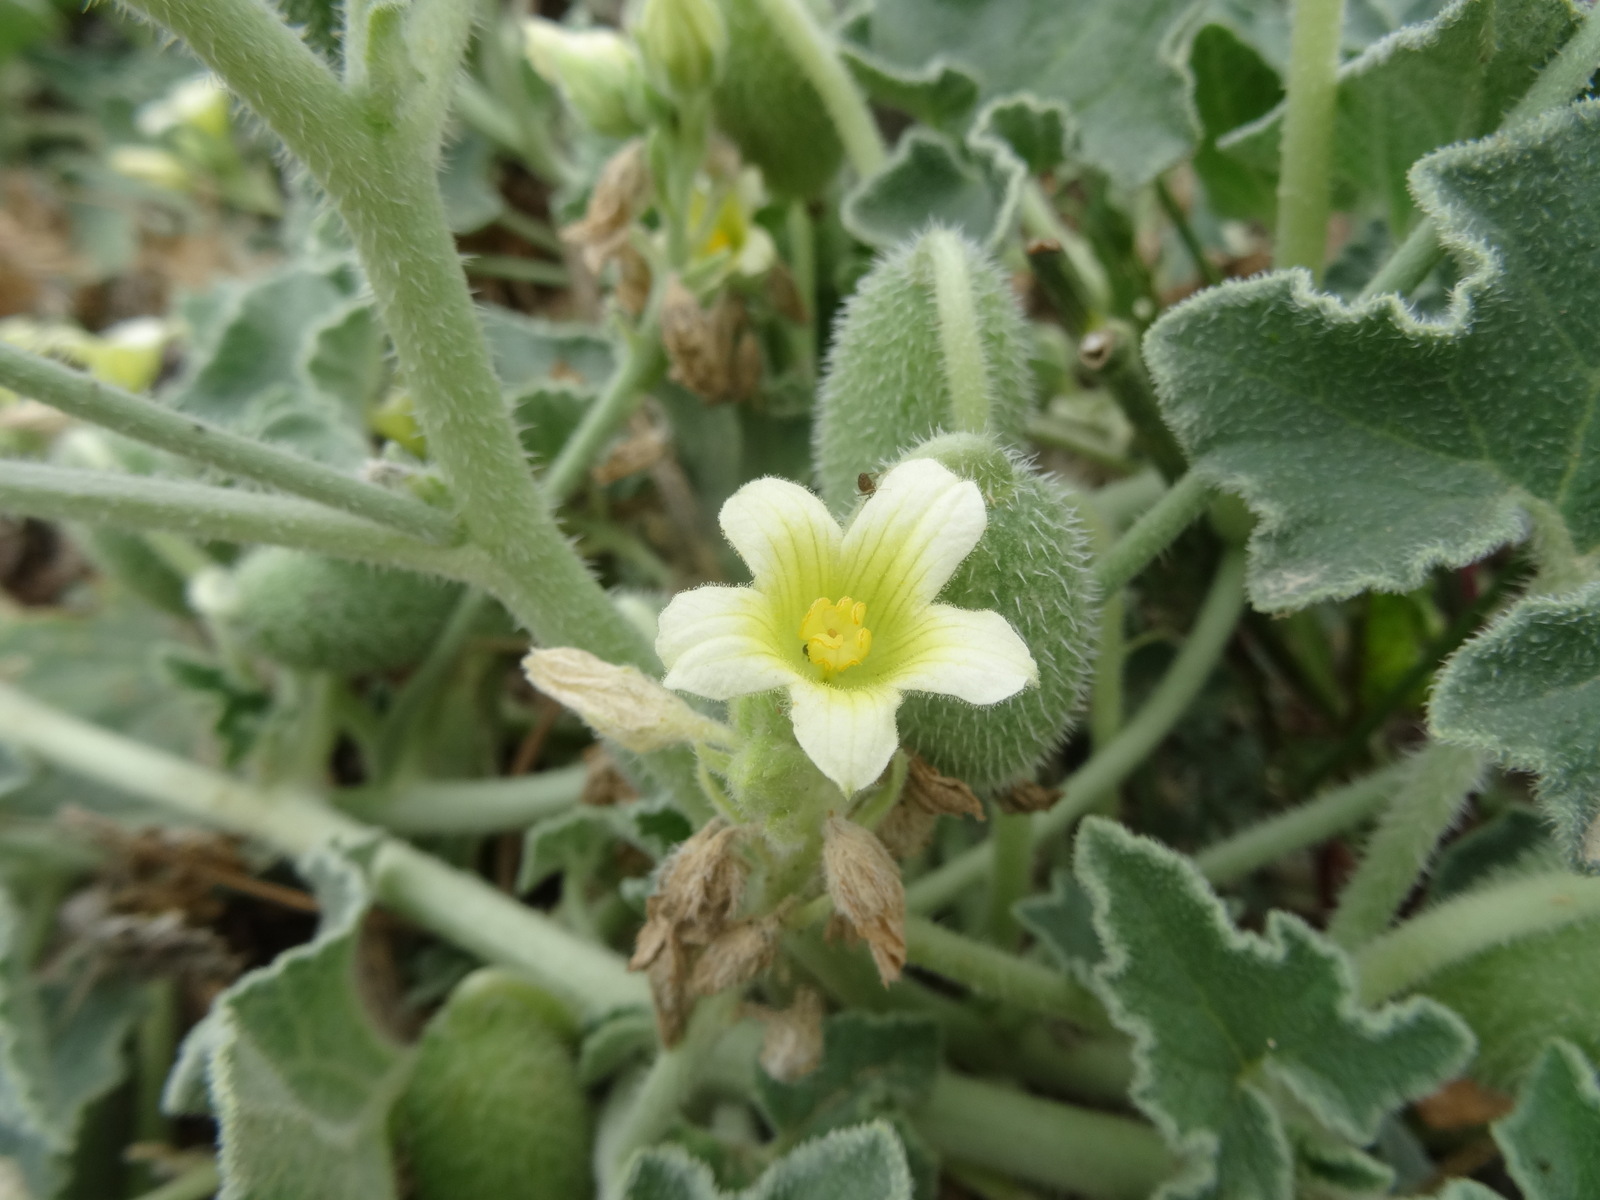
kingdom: Plantae
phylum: Tracheophyta
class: Magnoliopsida
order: Cucurbitales
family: Cucurbitaceae
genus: Ecballium
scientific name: Ecballium elaterium
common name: Squirting cucumber
